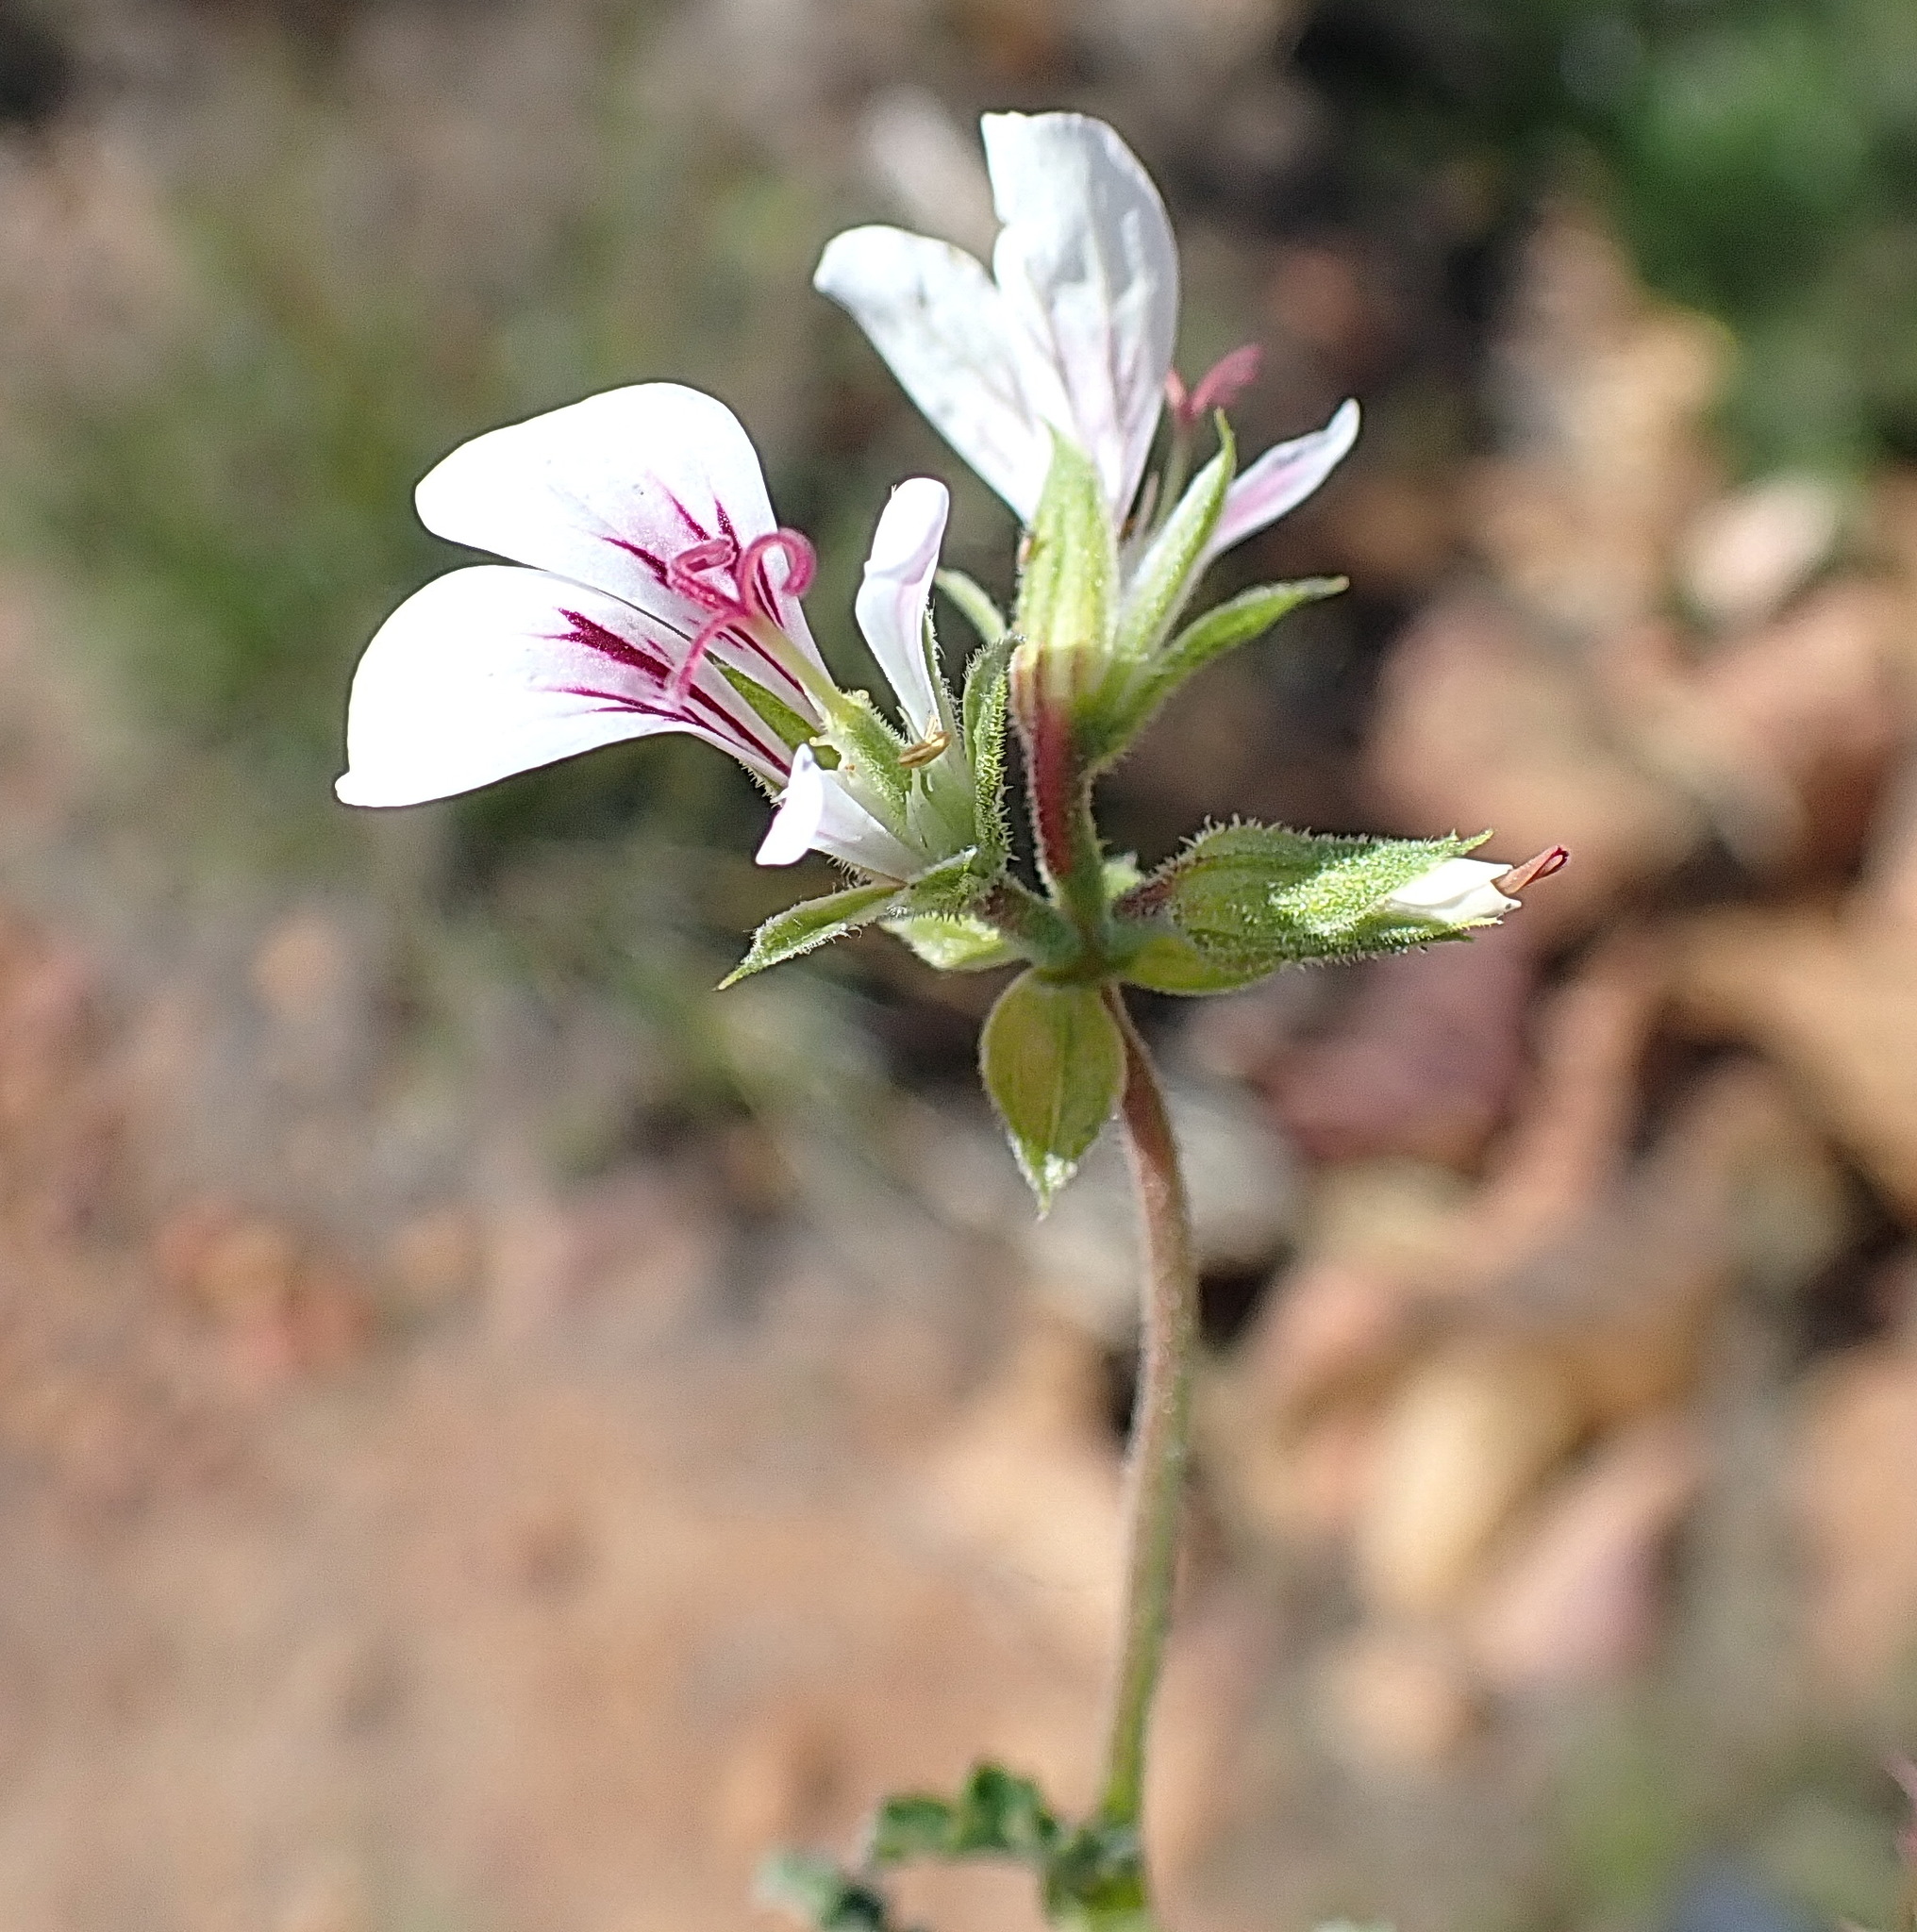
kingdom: Plantae
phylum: Tracheophyta
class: Magnoliopsida
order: Geraniales
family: Geraniaceae
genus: Pelargonium
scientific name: Pelargonium candicans
